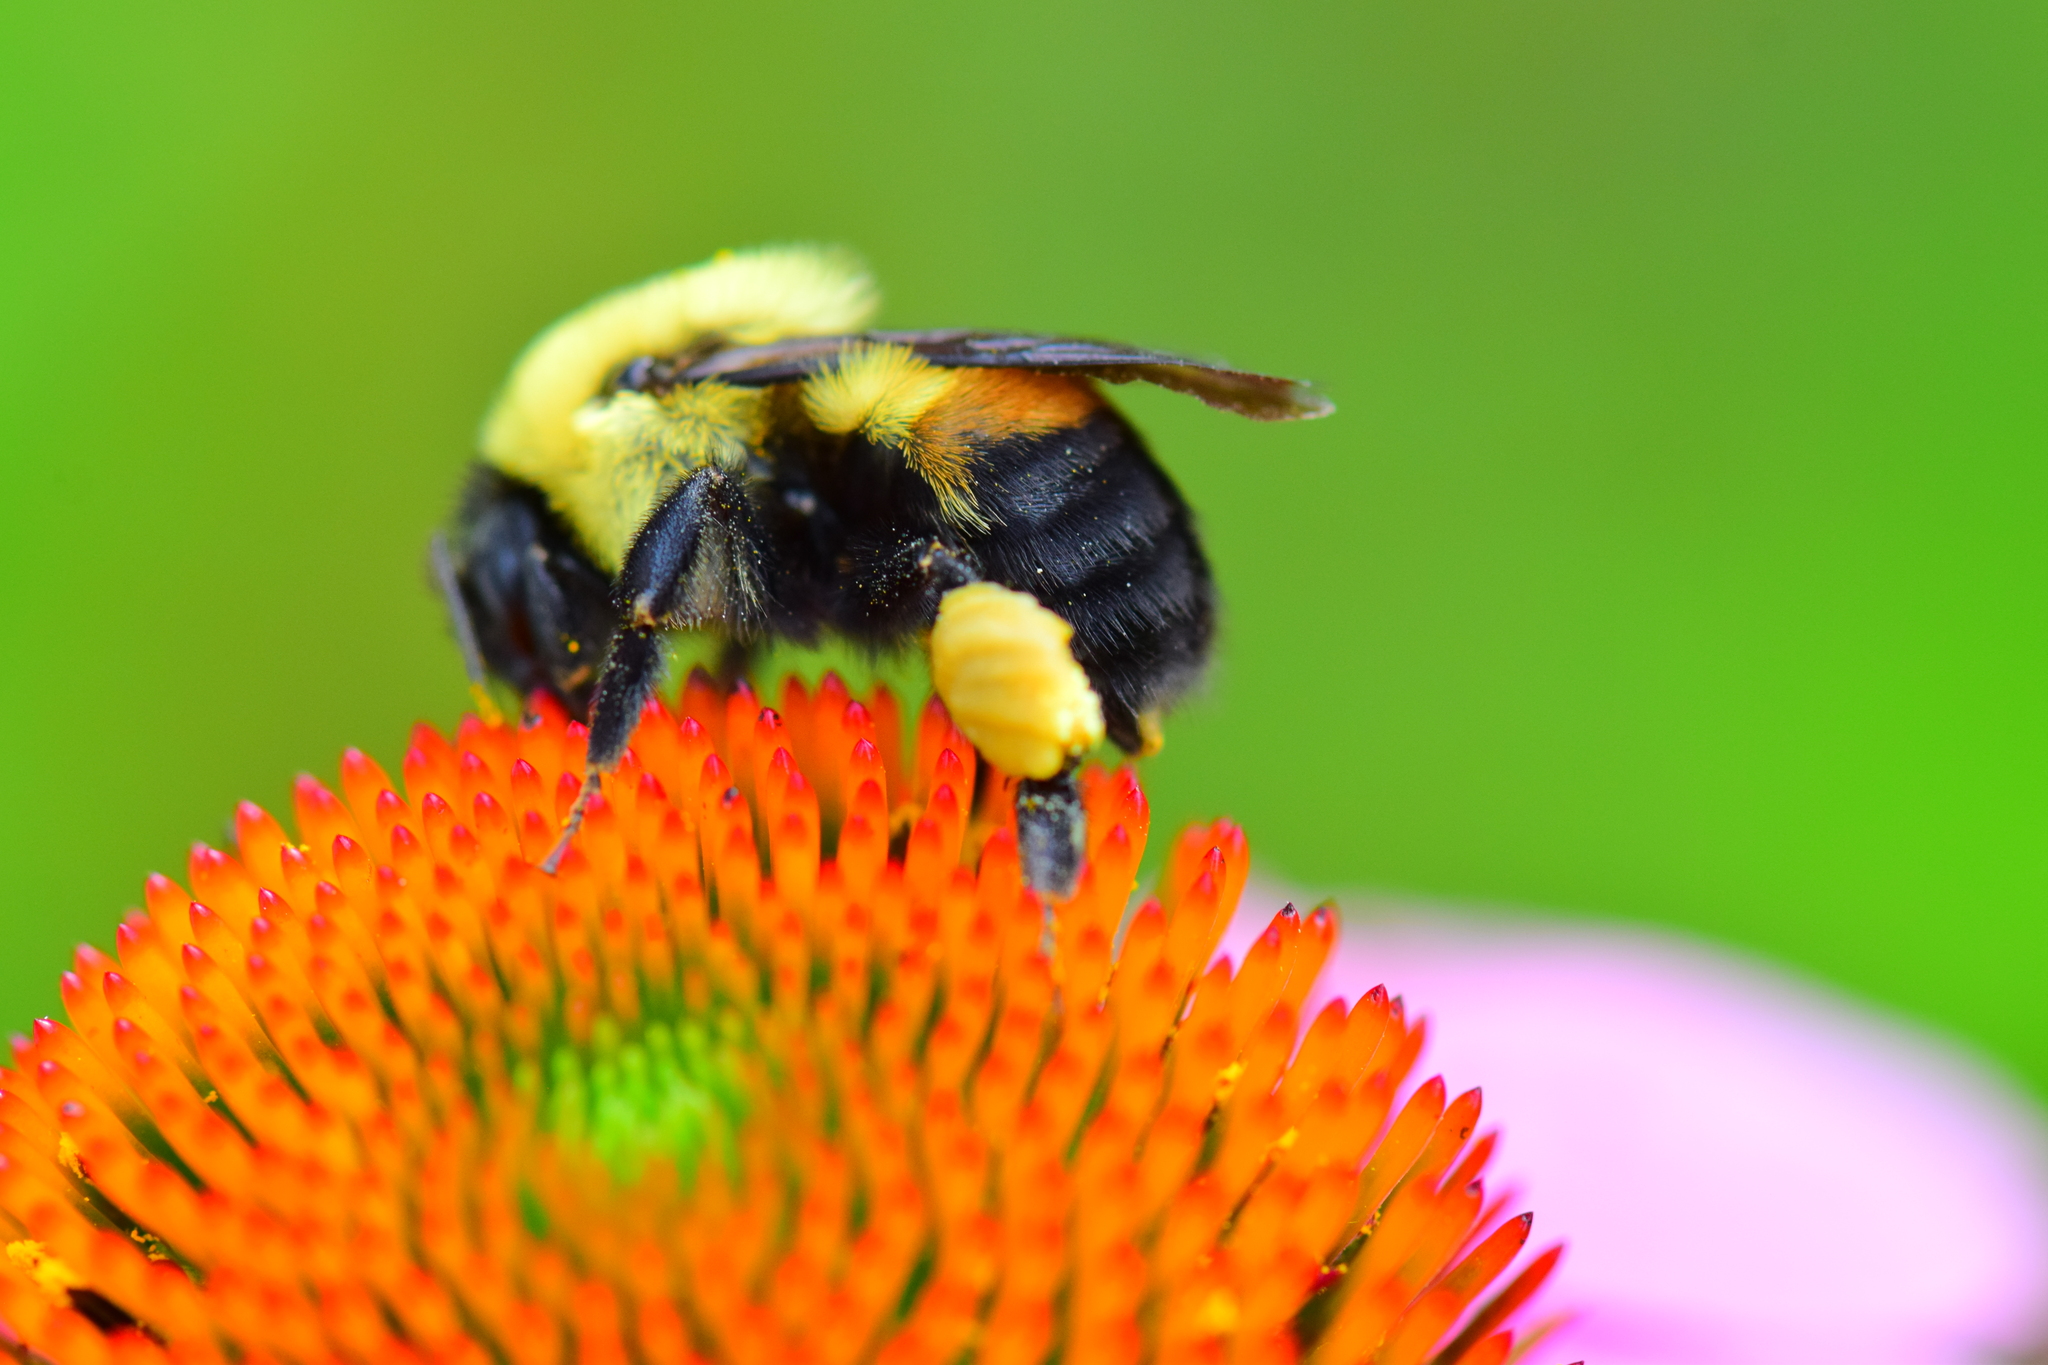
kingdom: Animalia
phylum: Arthropoda
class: Insecta
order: Hymenoptera
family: Apidae
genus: Bombus
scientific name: Bombus griseocollis
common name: Brown-belted bumble bee
